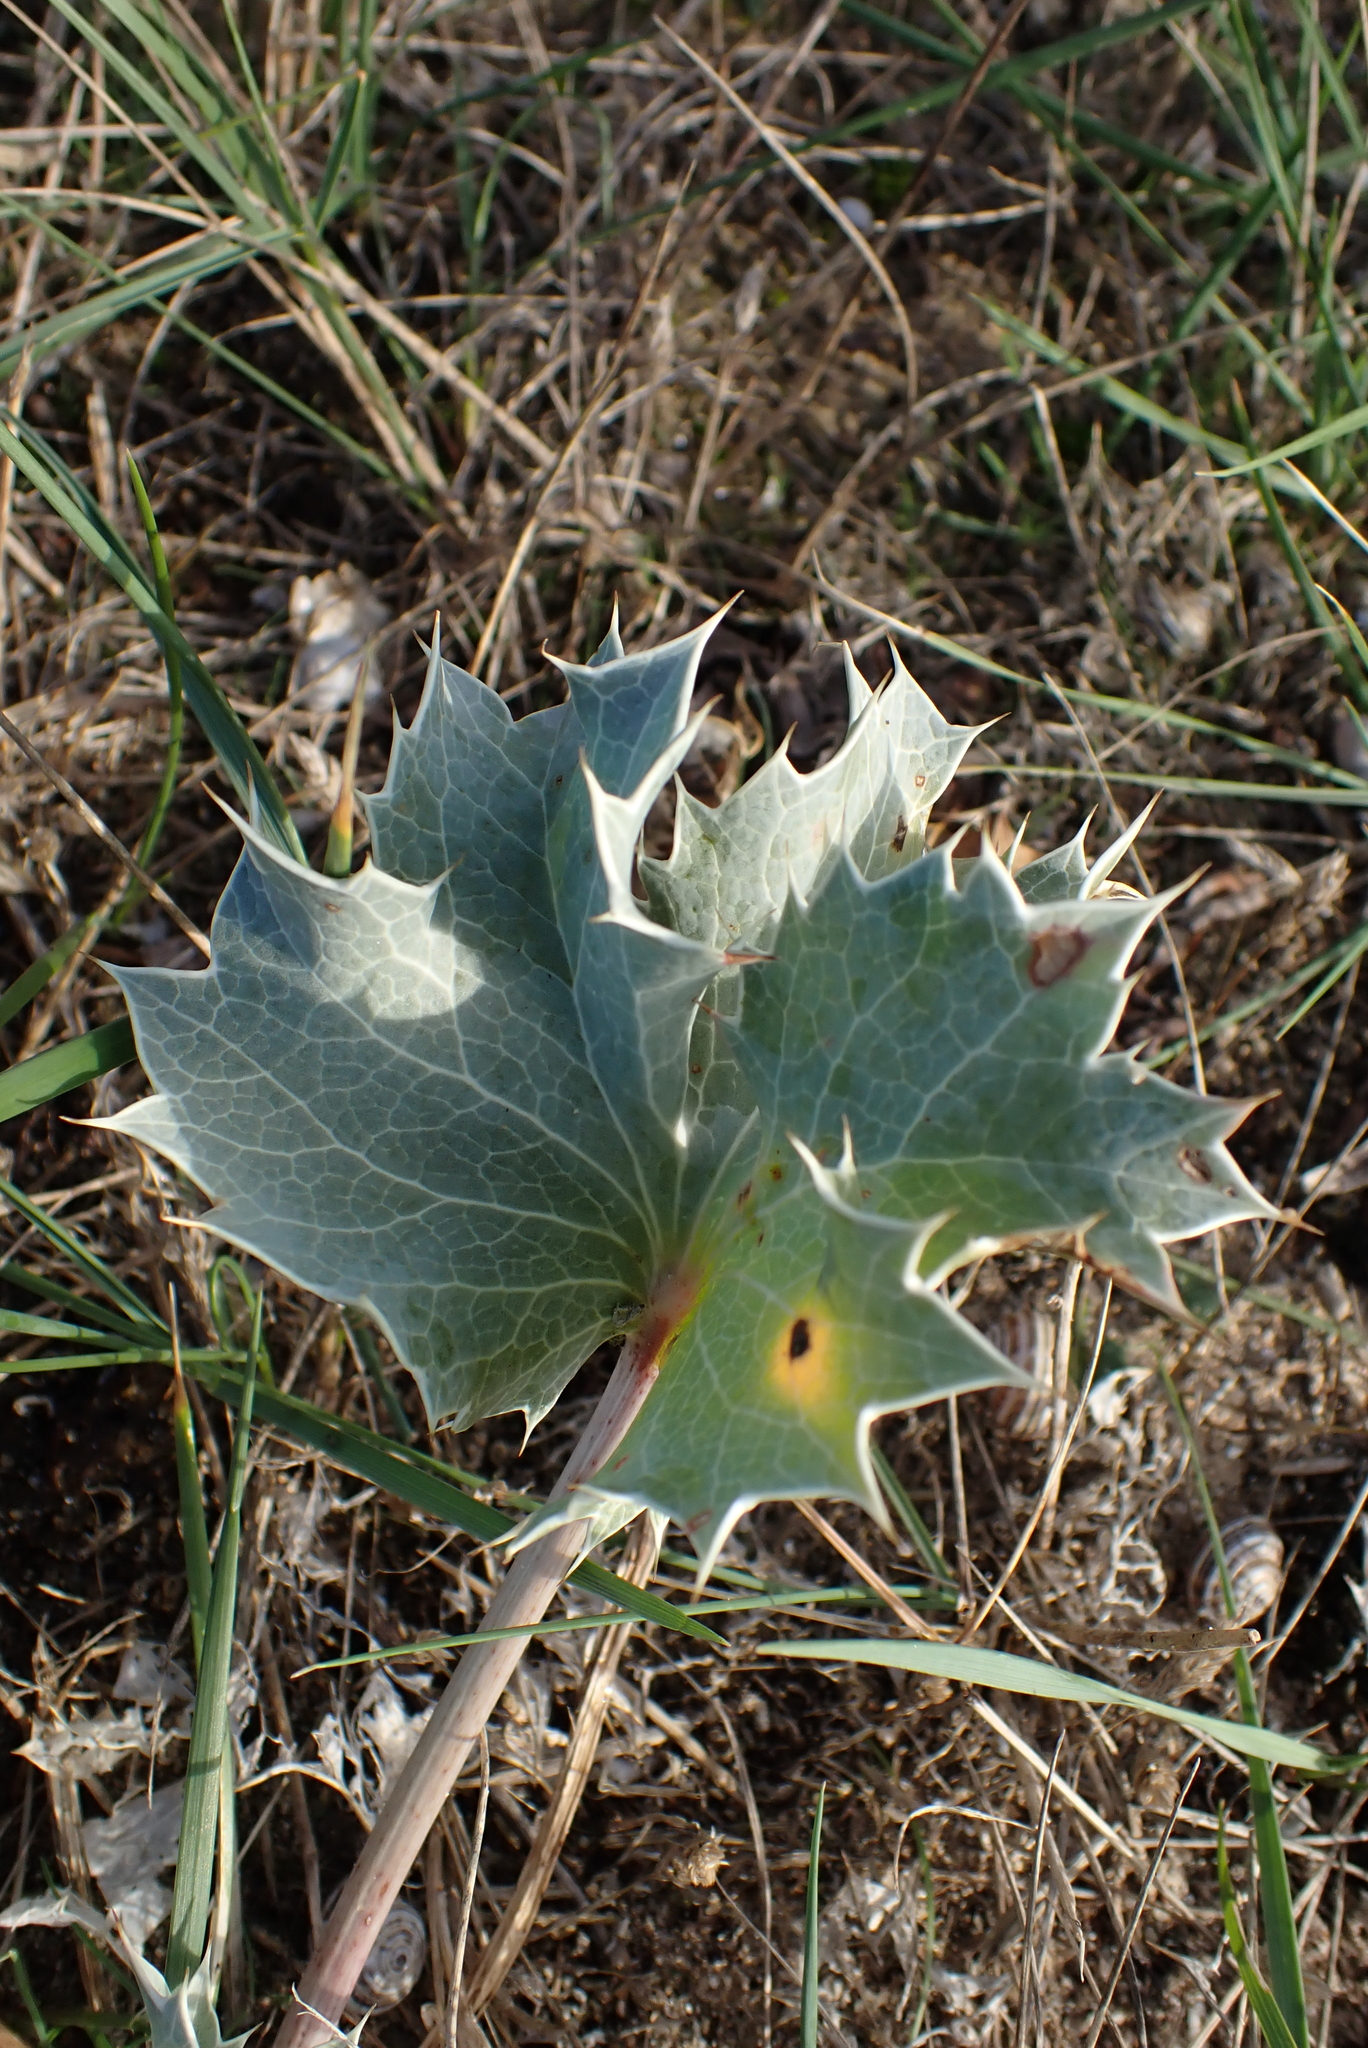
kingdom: Plantae
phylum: Tracheophyta
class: Magnoliopsida
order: Apiales
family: Apiaceae
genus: Eryngium
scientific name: Eryngium maritimum
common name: Sea-holly
